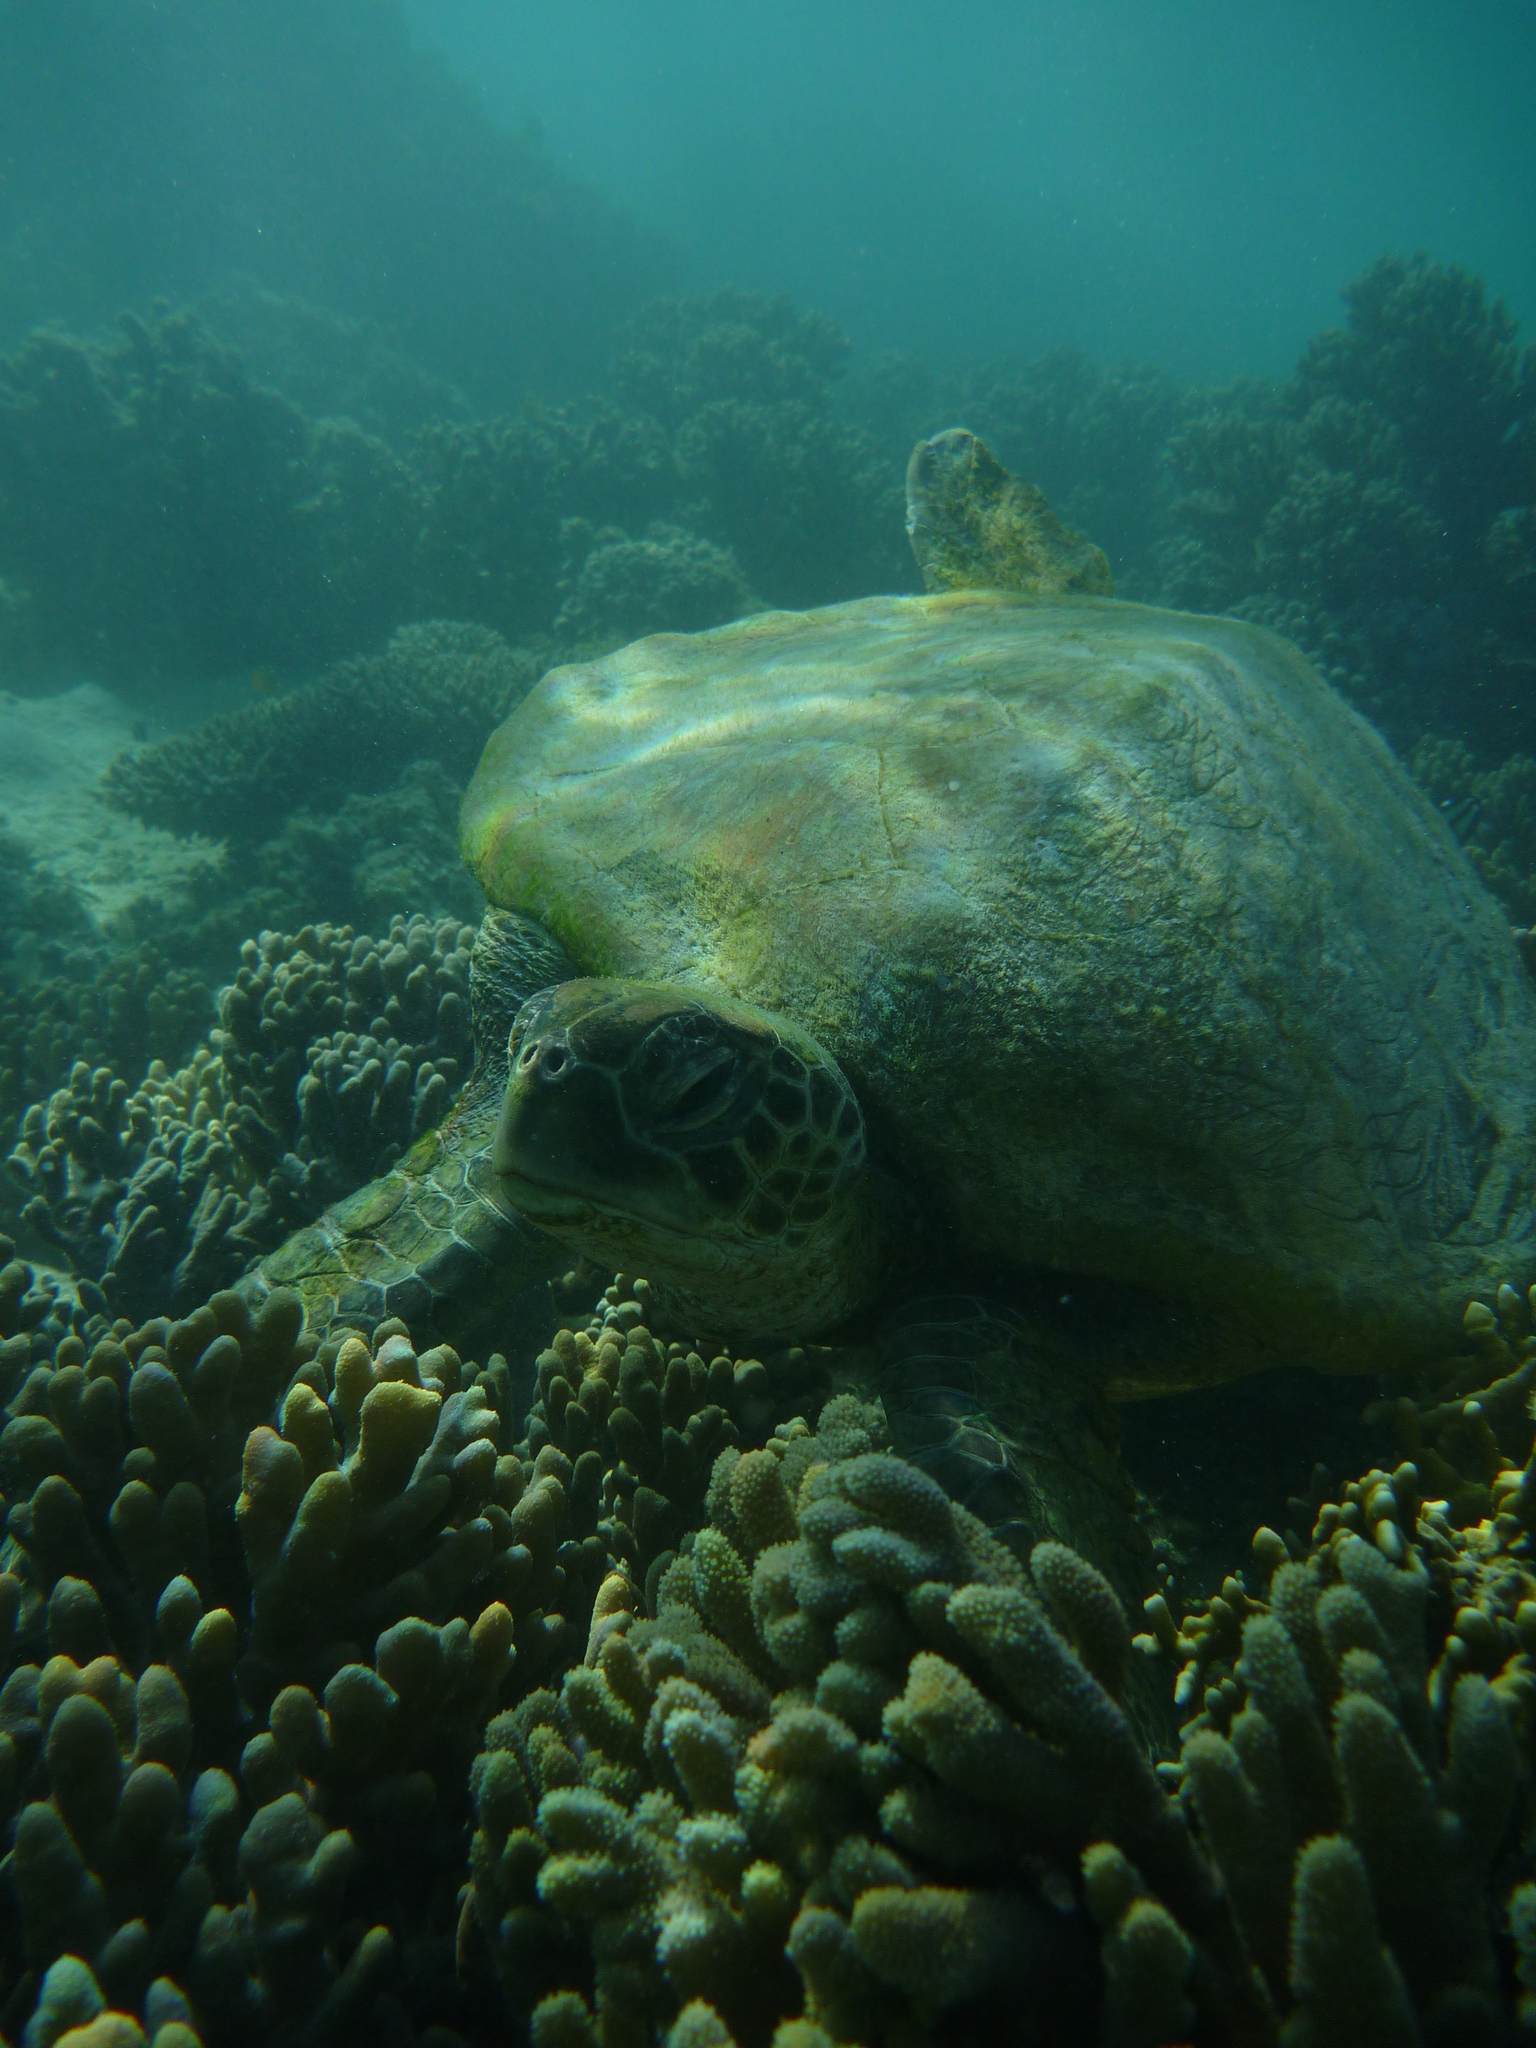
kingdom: Animalia
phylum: Chordata
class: Testudines
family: Cheloniidae
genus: Chelonia
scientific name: Chelonia mydas
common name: Green turtle
